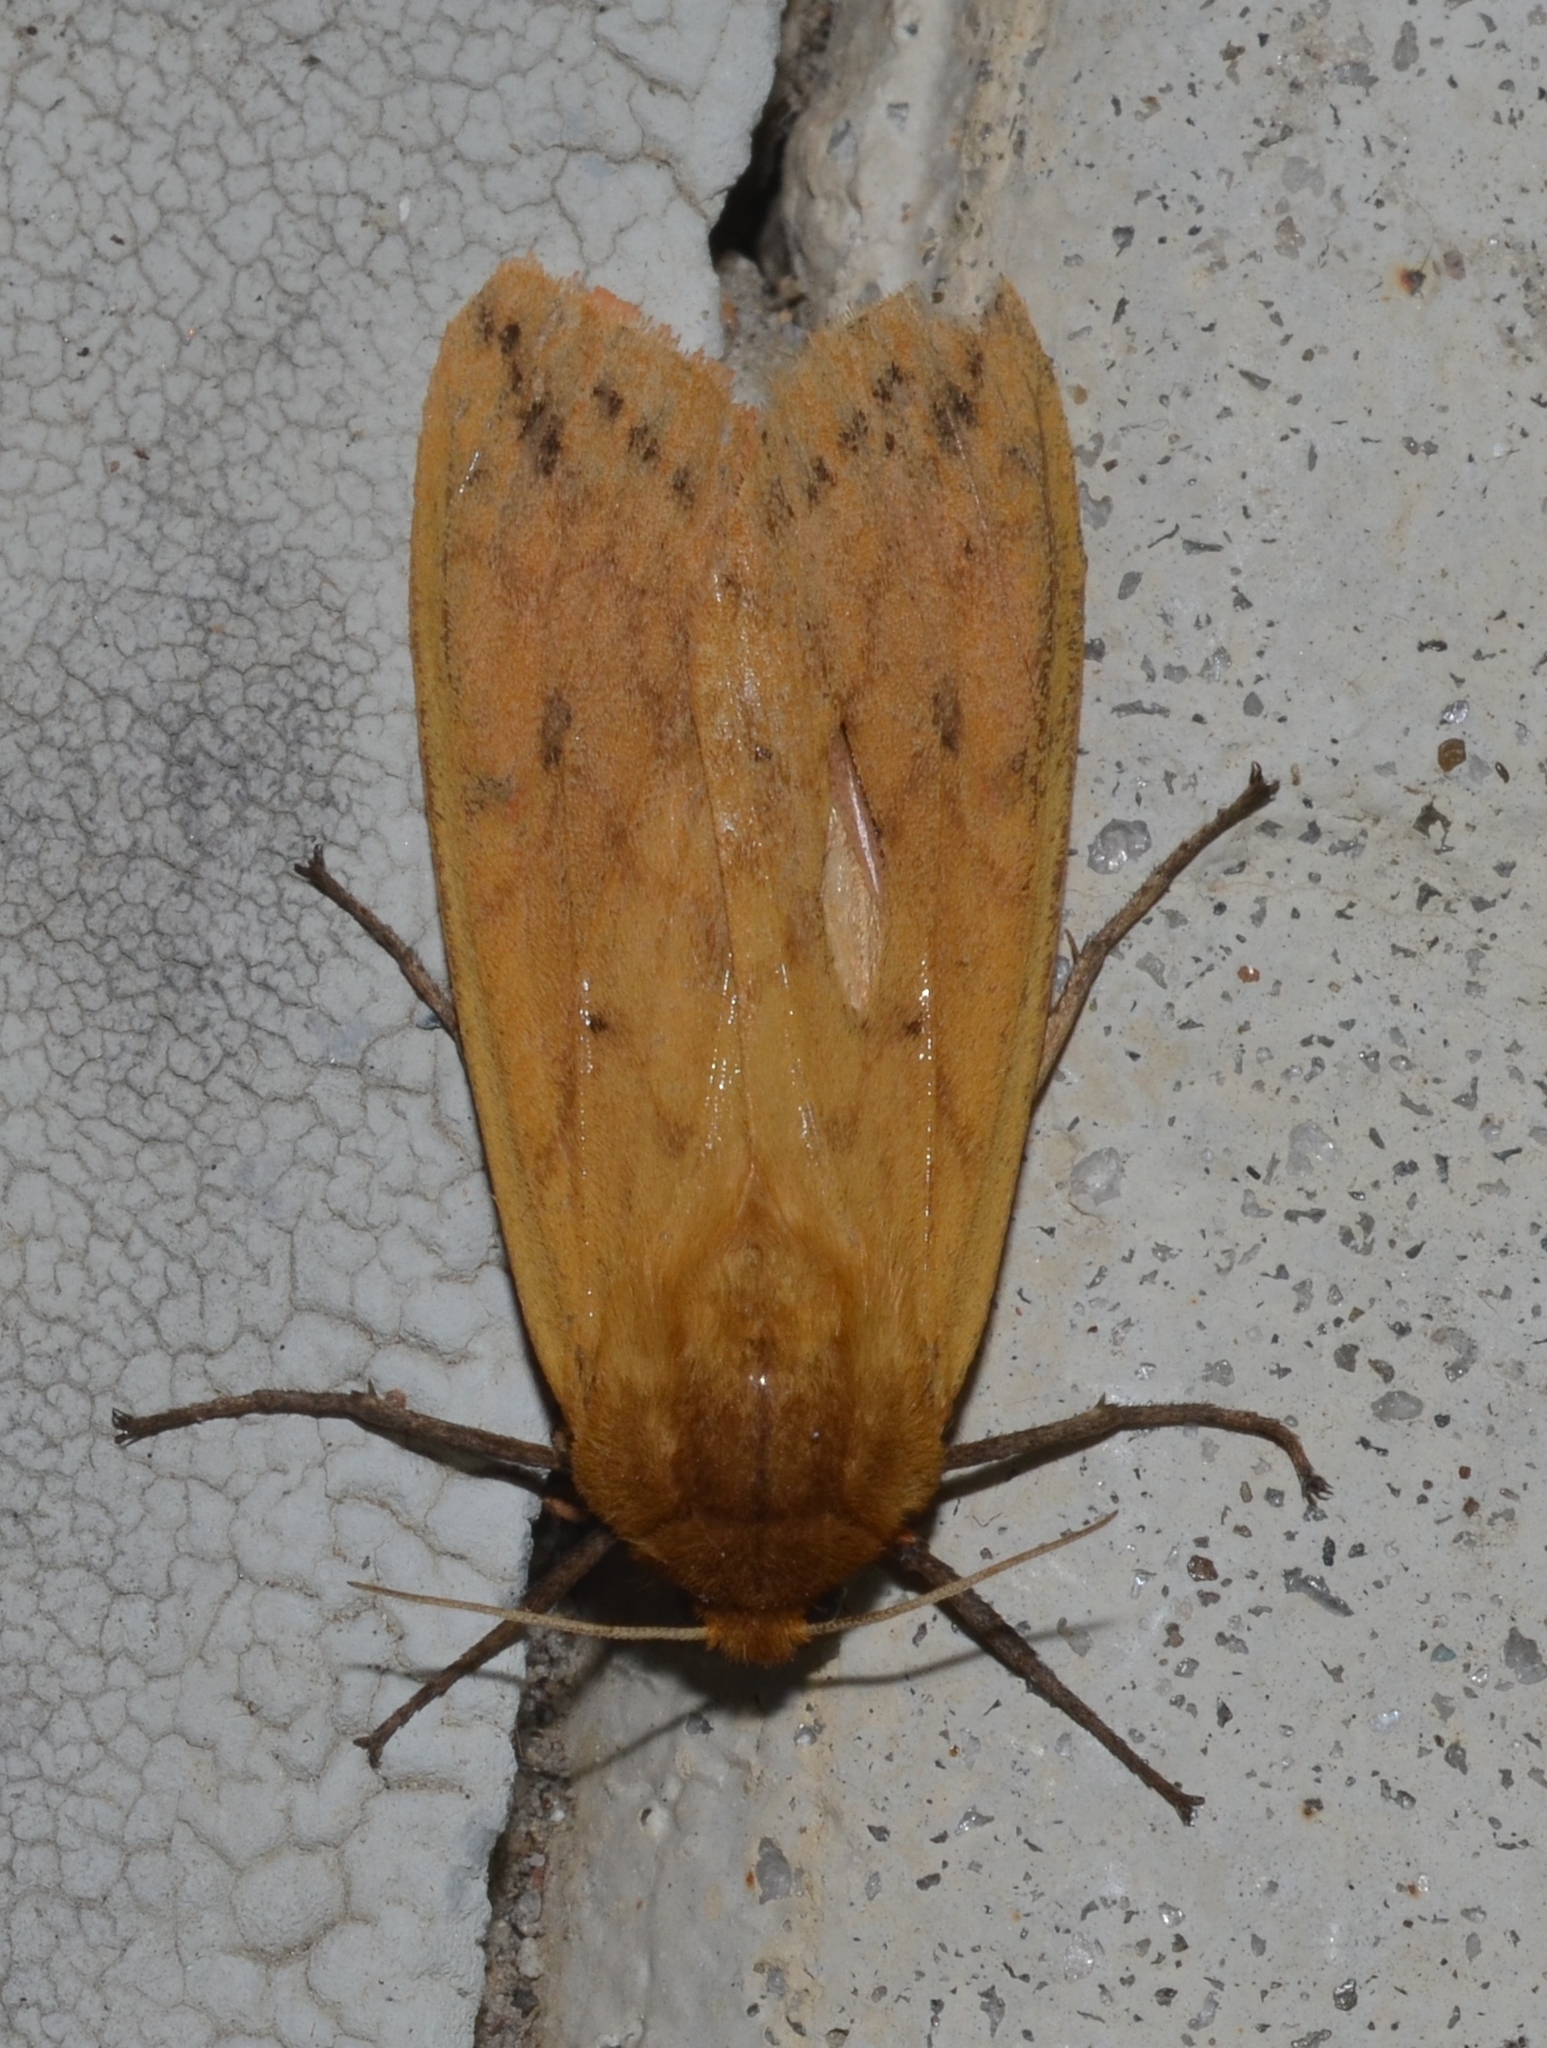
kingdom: Animalia
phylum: Arthropoda
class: Insecta
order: Lepidoptera
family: Erebidae
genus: Pyrrharctia
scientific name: Pyrrharctia isabella
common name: Isabella tiger moth
